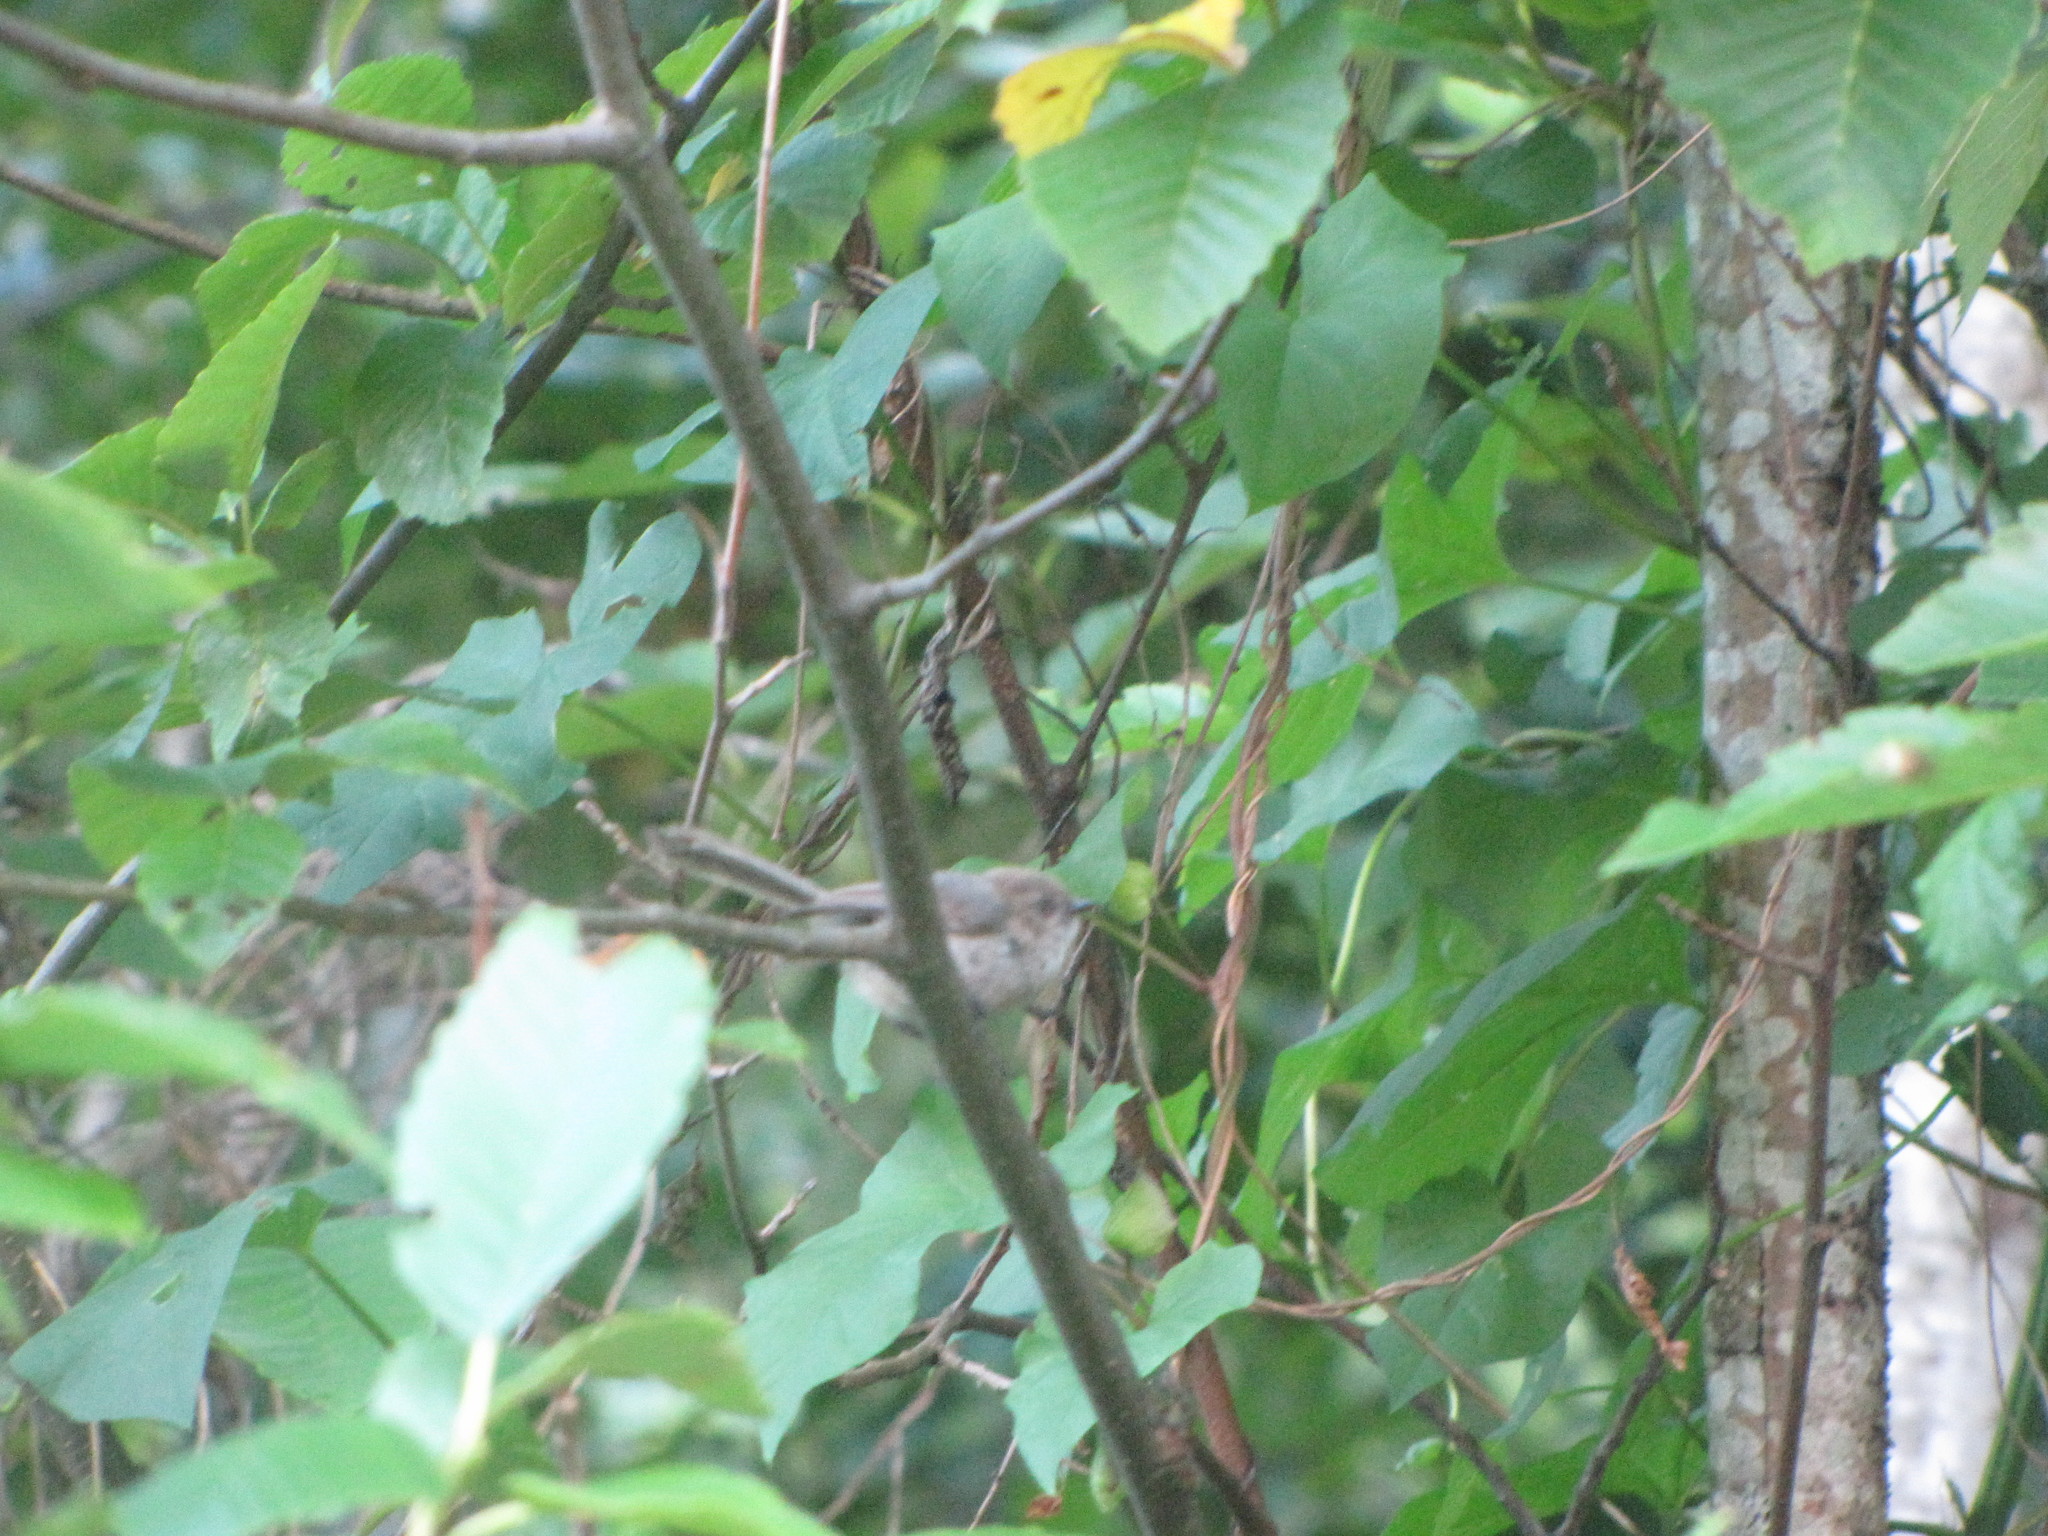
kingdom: Animalia
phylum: Chordata
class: Aves
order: Passeriformes
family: Aegithalidae
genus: Psaltriparus
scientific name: Psaltriparus minimus
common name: American bushtit
